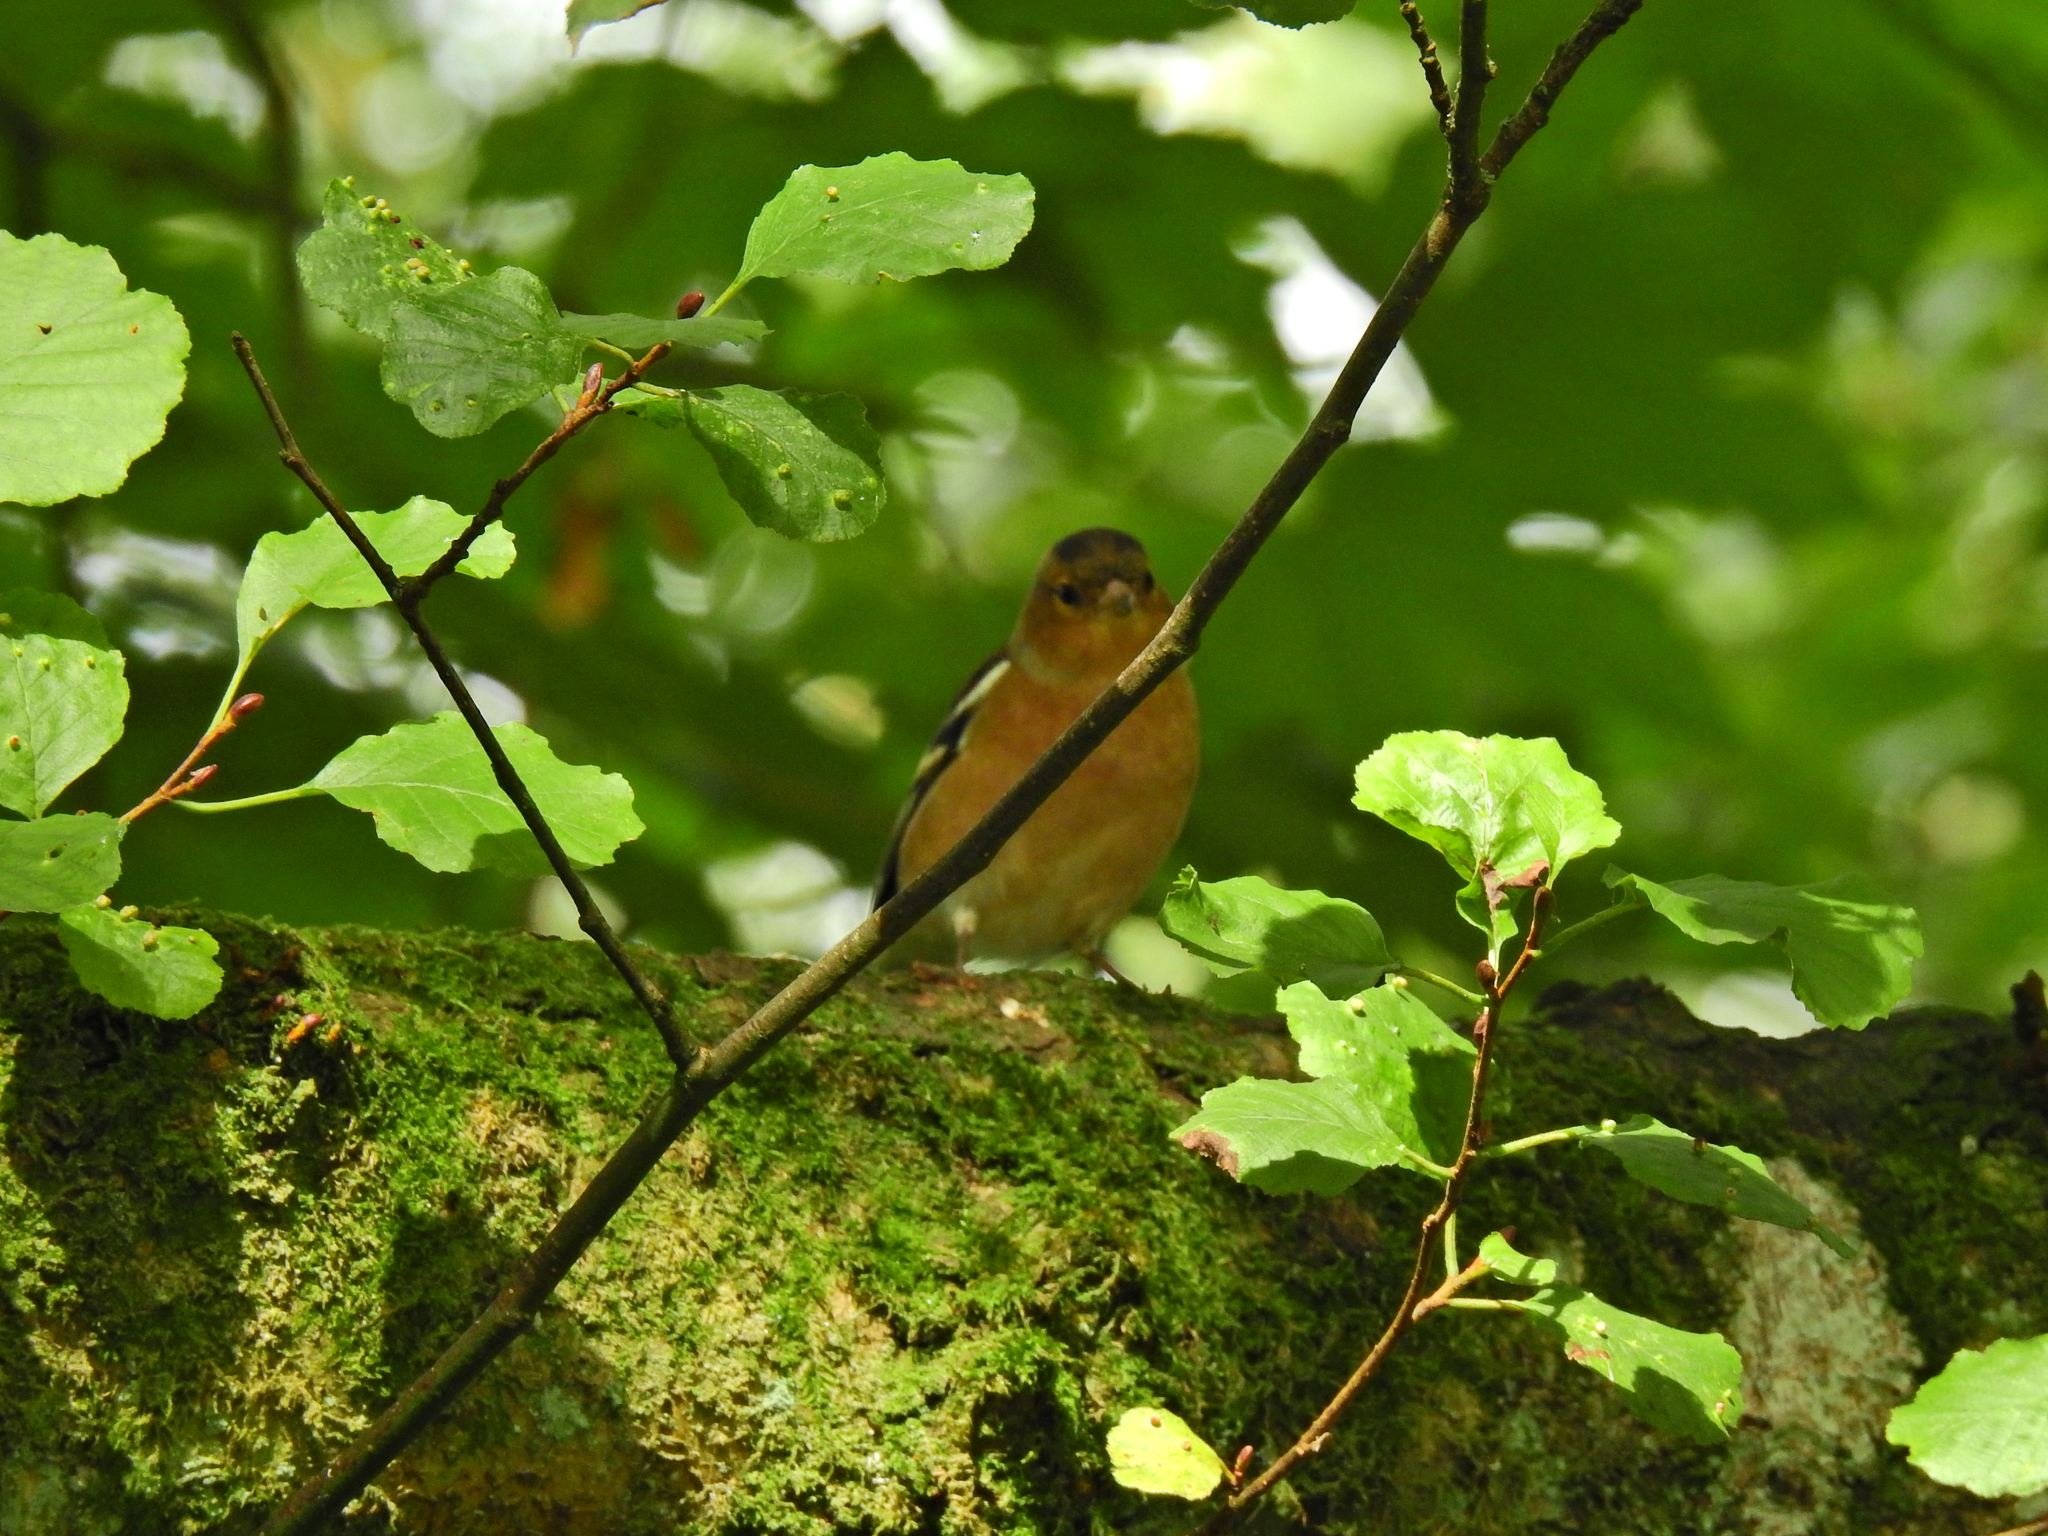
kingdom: Animalia
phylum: Chordata
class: Aves
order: Passeriformes
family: Fringillidae
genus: Fringilla
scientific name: Fringilla coelebs
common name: Common chaffinch
